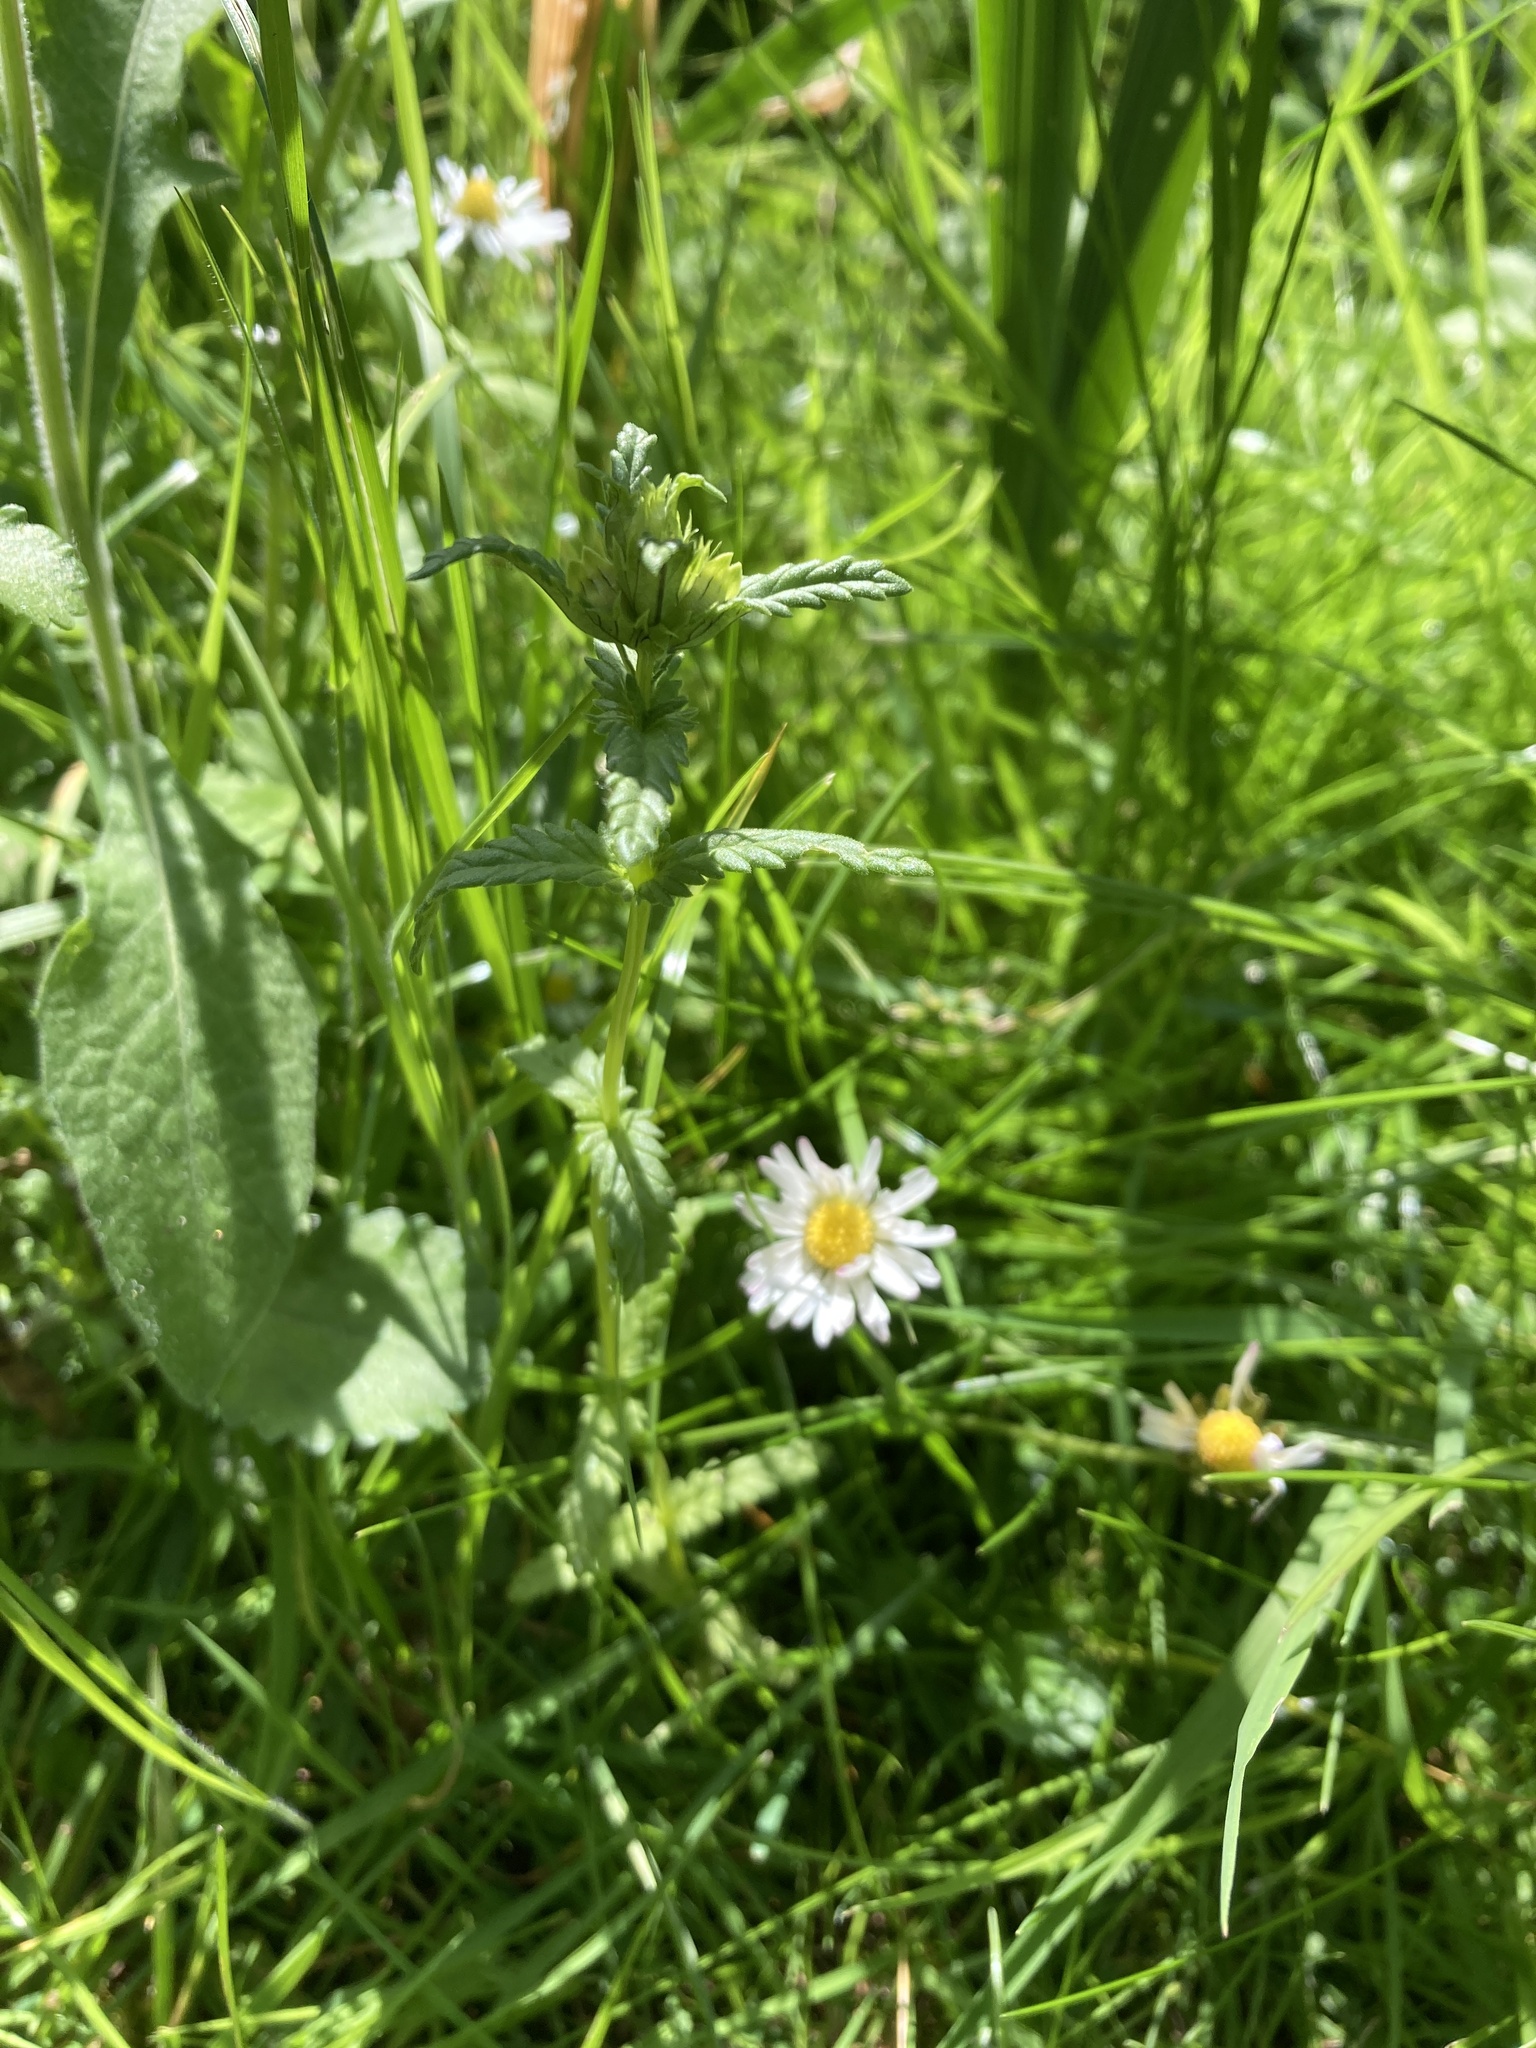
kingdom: Plantae
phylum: Tracheophyta
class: Magnoliopsida
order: Lamiales
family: Orobanchaceae
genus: Rhinanthus
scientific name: Rhinanthus minor
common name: Yellow-rattle
